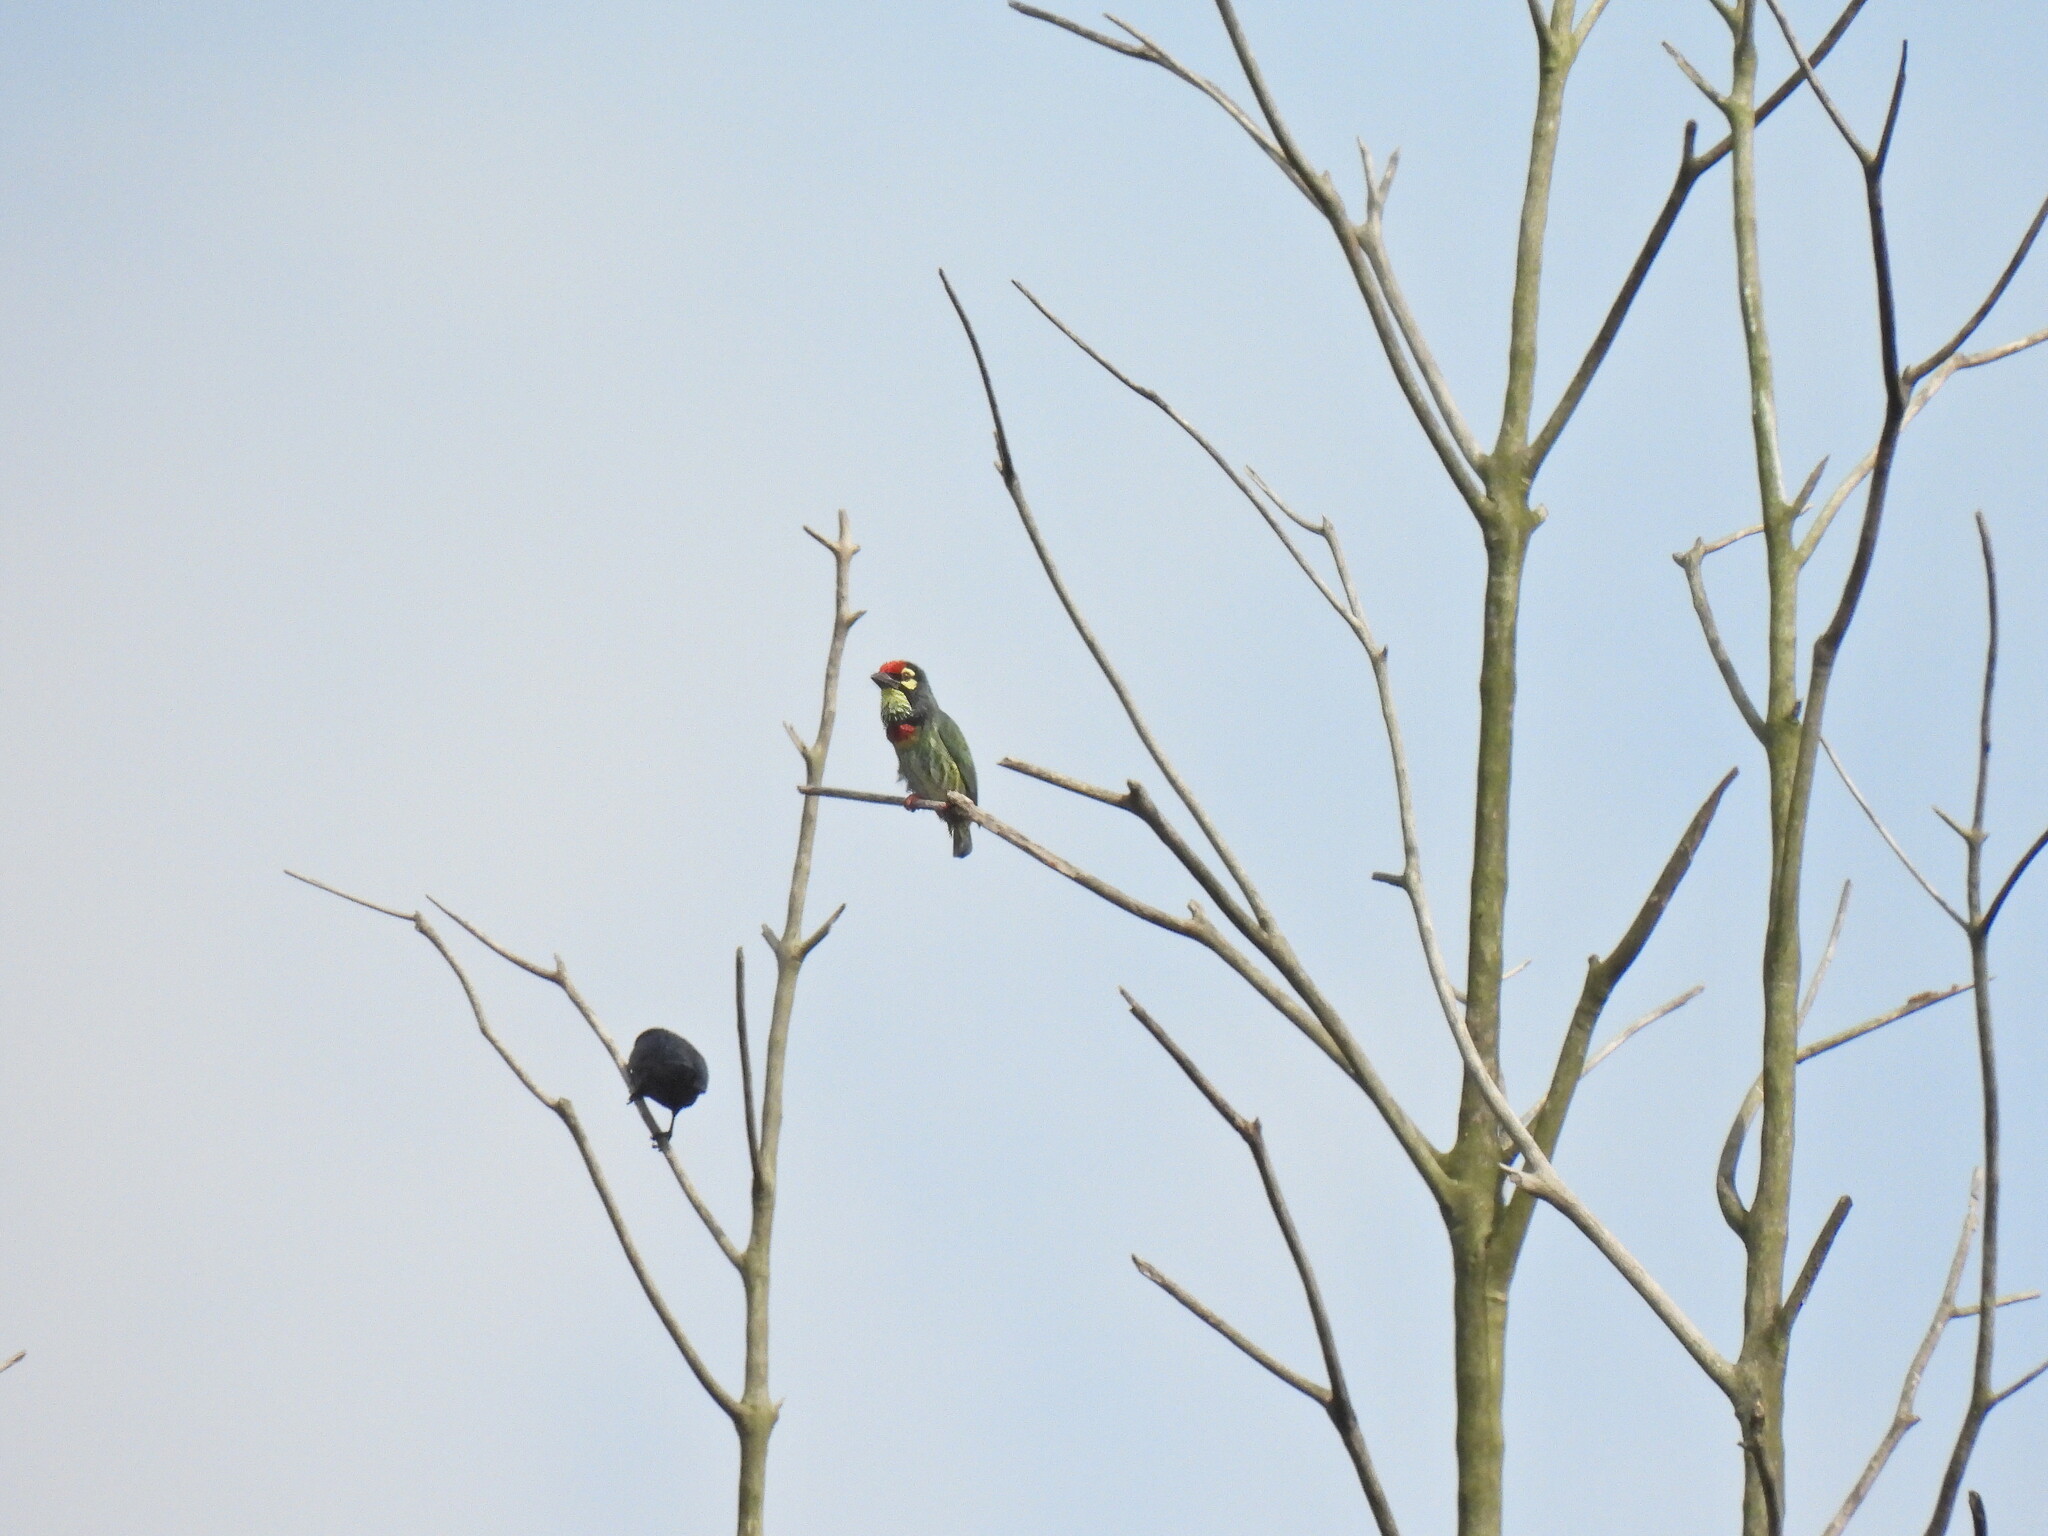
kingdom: Animalia
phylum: Chordata
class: Aves
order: Piciformes
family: Megalaimidae
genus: Psilopogon
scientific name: Psilopogon haemacephalus
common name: Coppersmith barbet
